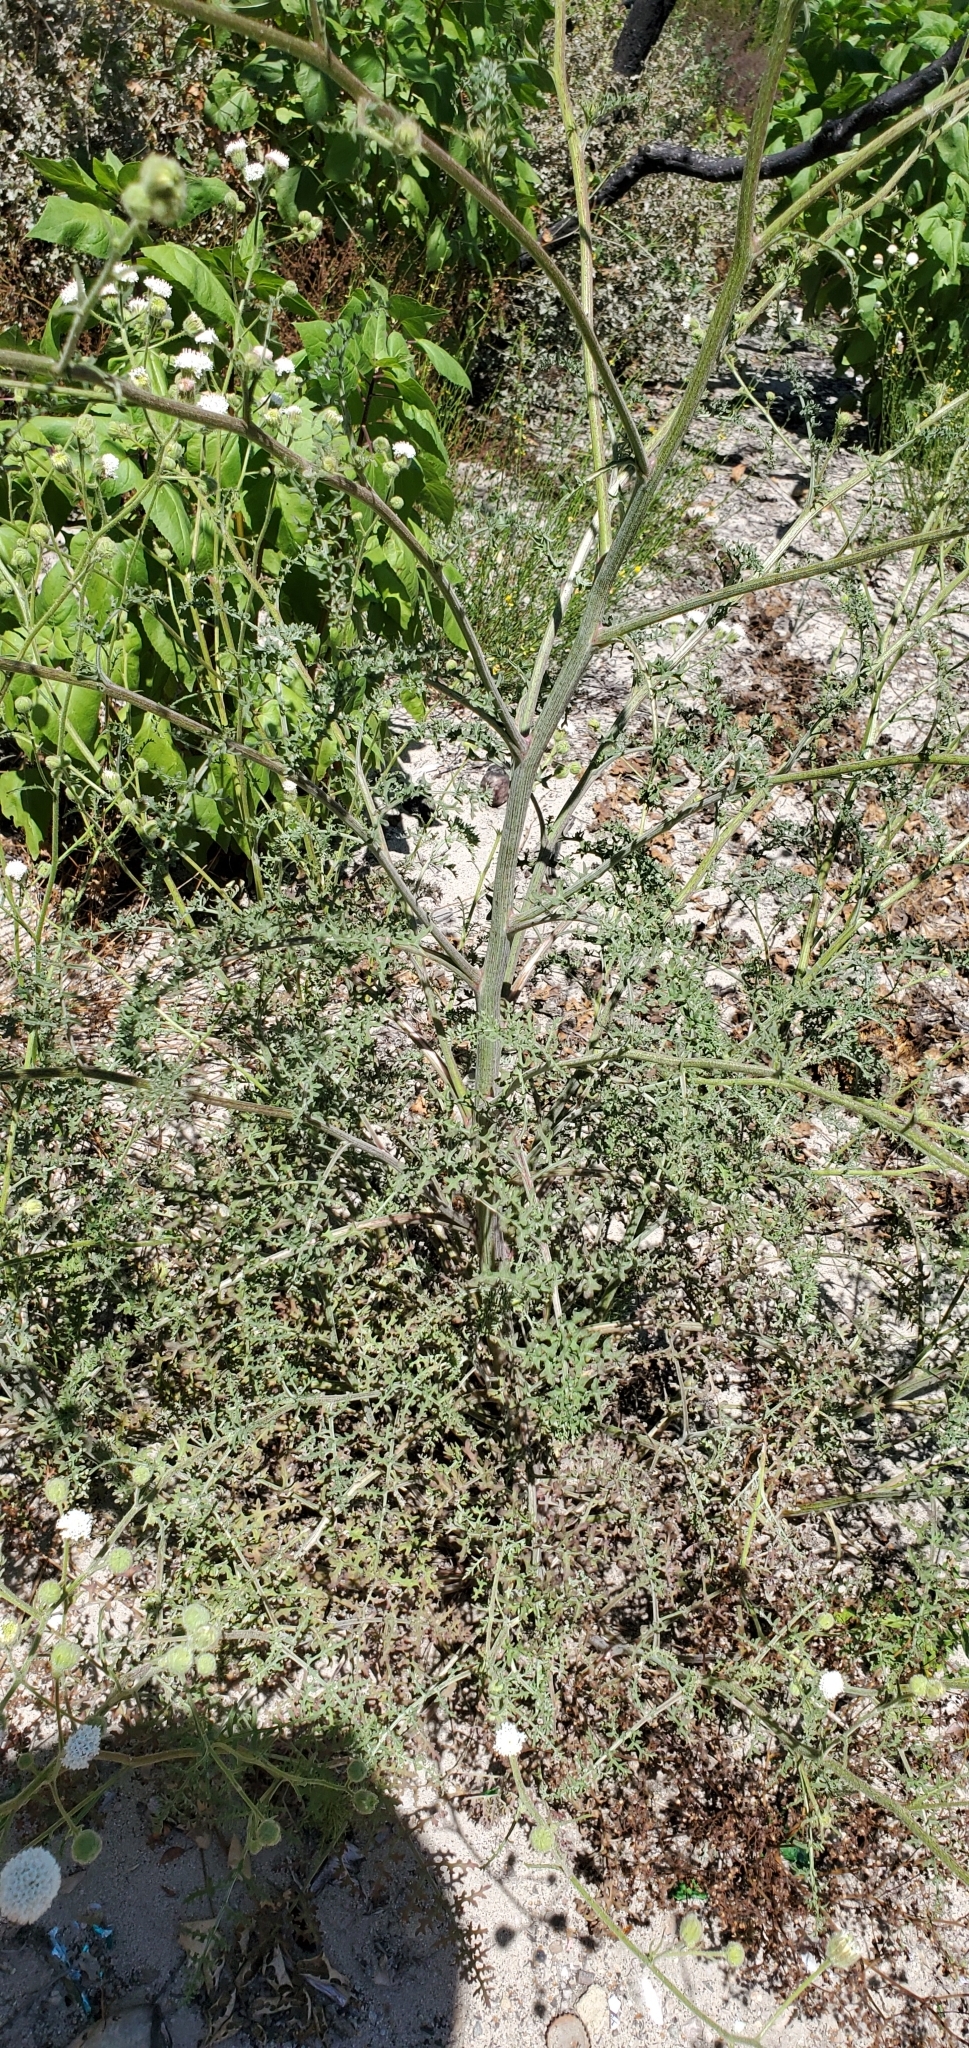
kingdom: Plantae
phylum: Tracheophyta
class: Magnoliopsida
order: Asterales
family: Asteraceae
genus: Chaenactis
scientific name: Chaenactis artemisiifolia
